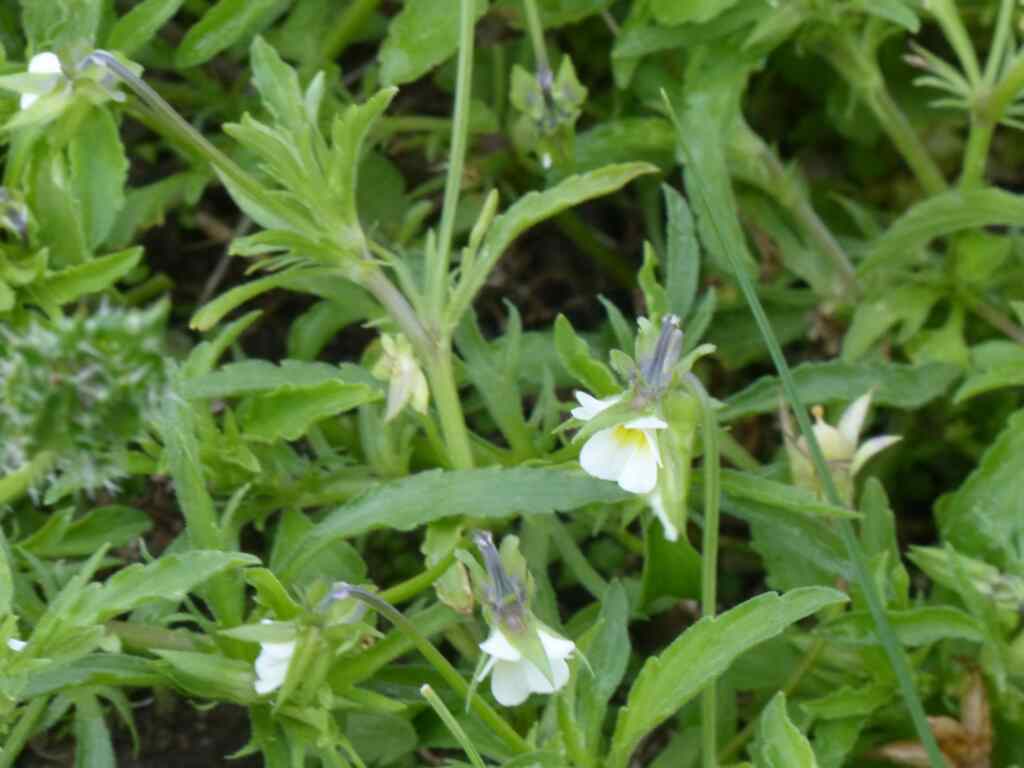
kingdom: Plantae
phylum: Tracheophyta
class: Magnoliopsida
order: Malpighiales
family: Violaceae
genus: Viola
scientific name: Viola arvensis
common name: Field pansy
